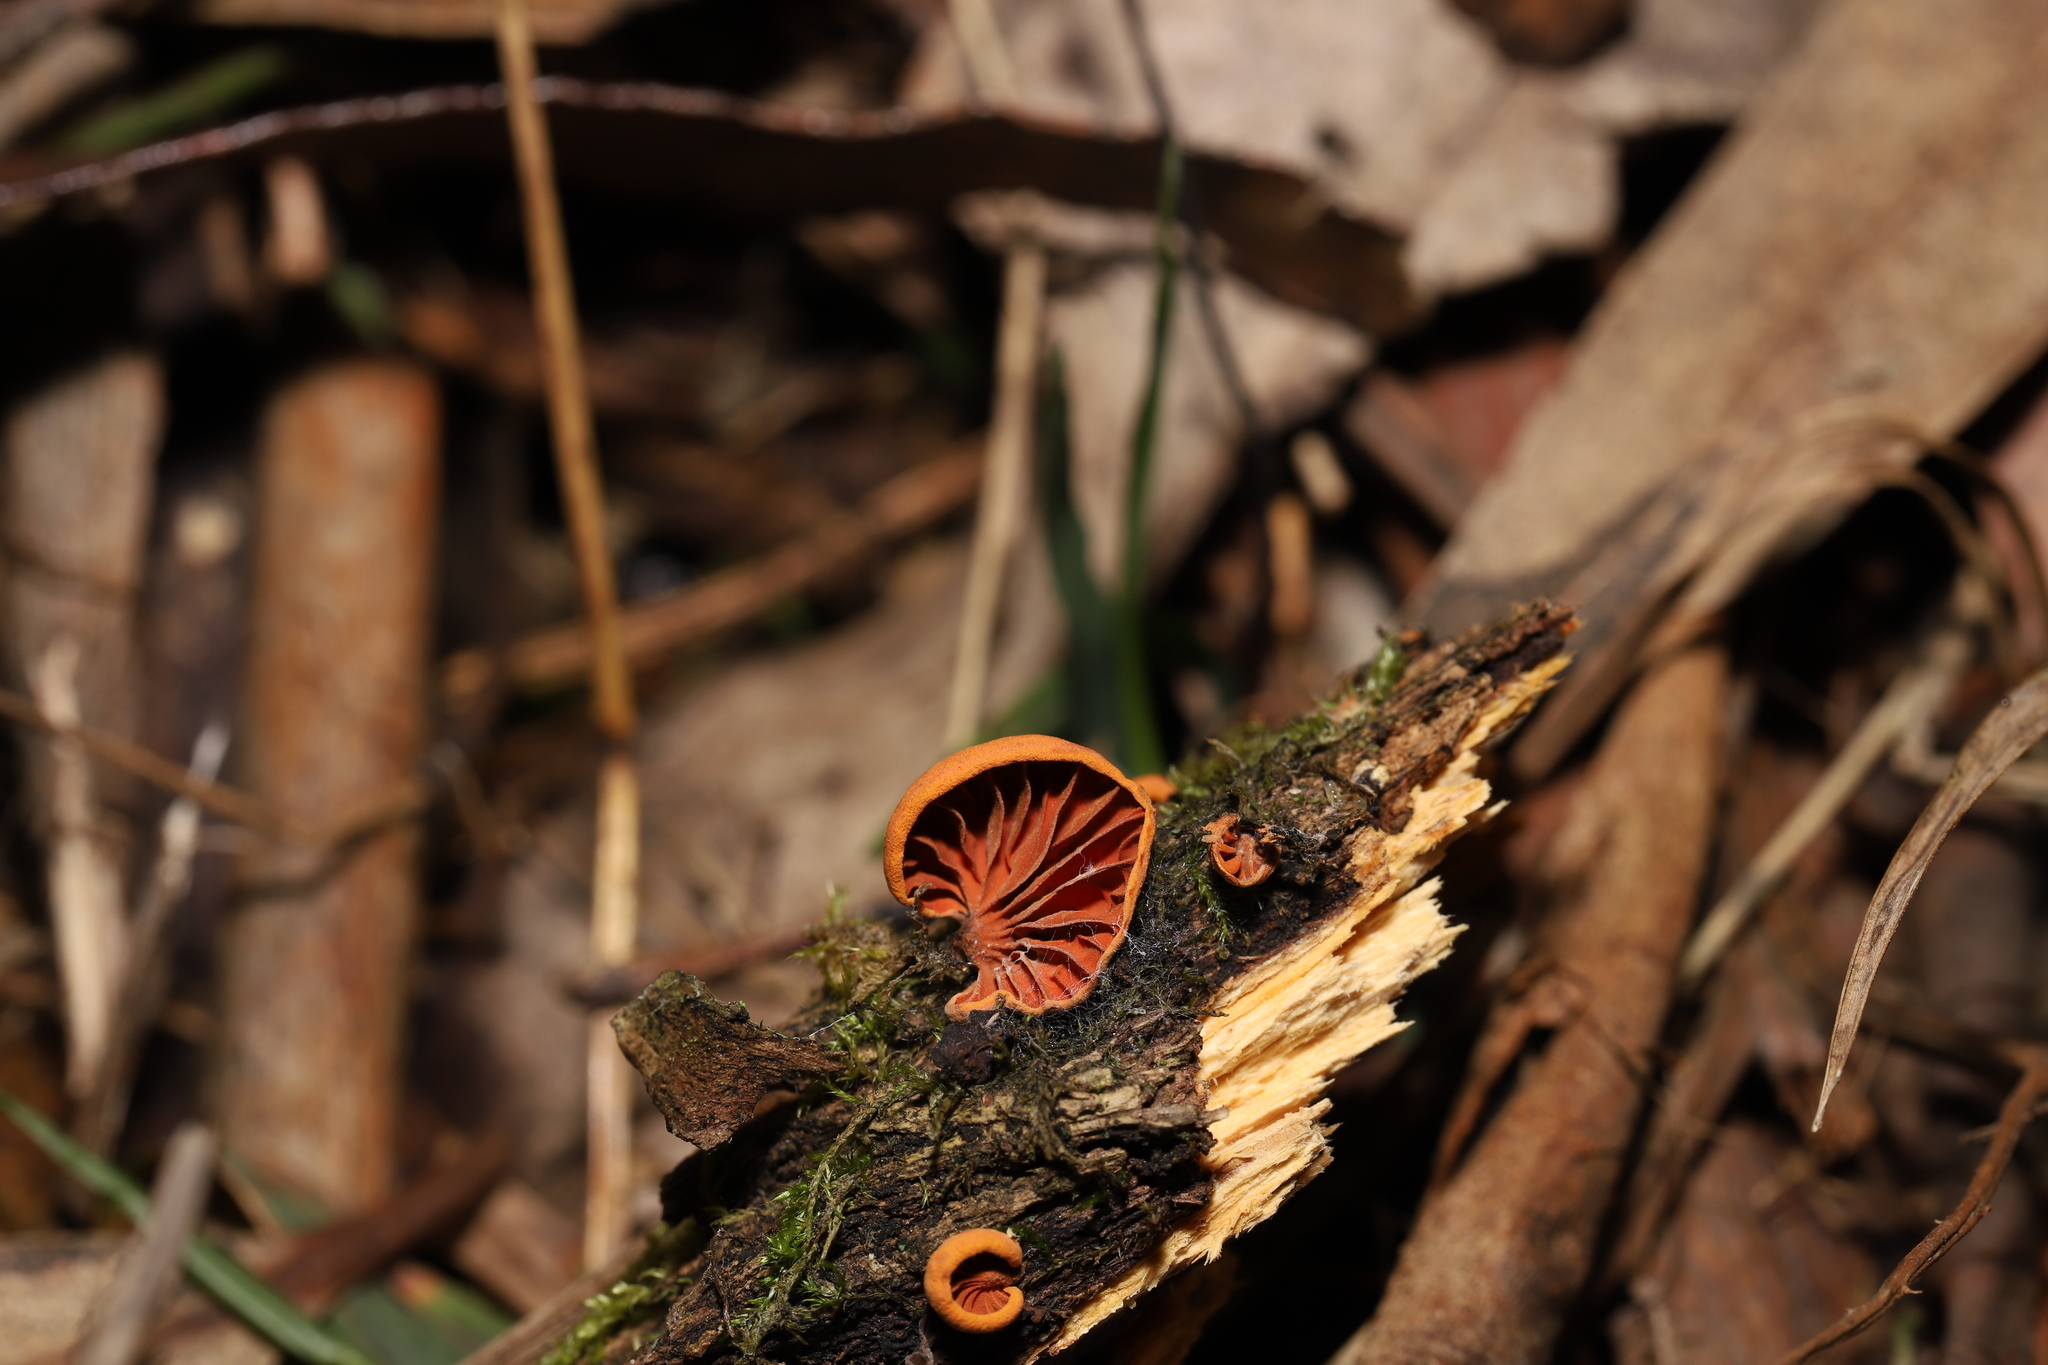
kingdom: Fungi
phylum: Basidiomycota
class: Agaricomycetes
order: Agaricales
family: Omphalotaceae
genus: Anthracophyllum
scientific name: Anthracophyllum archeri
